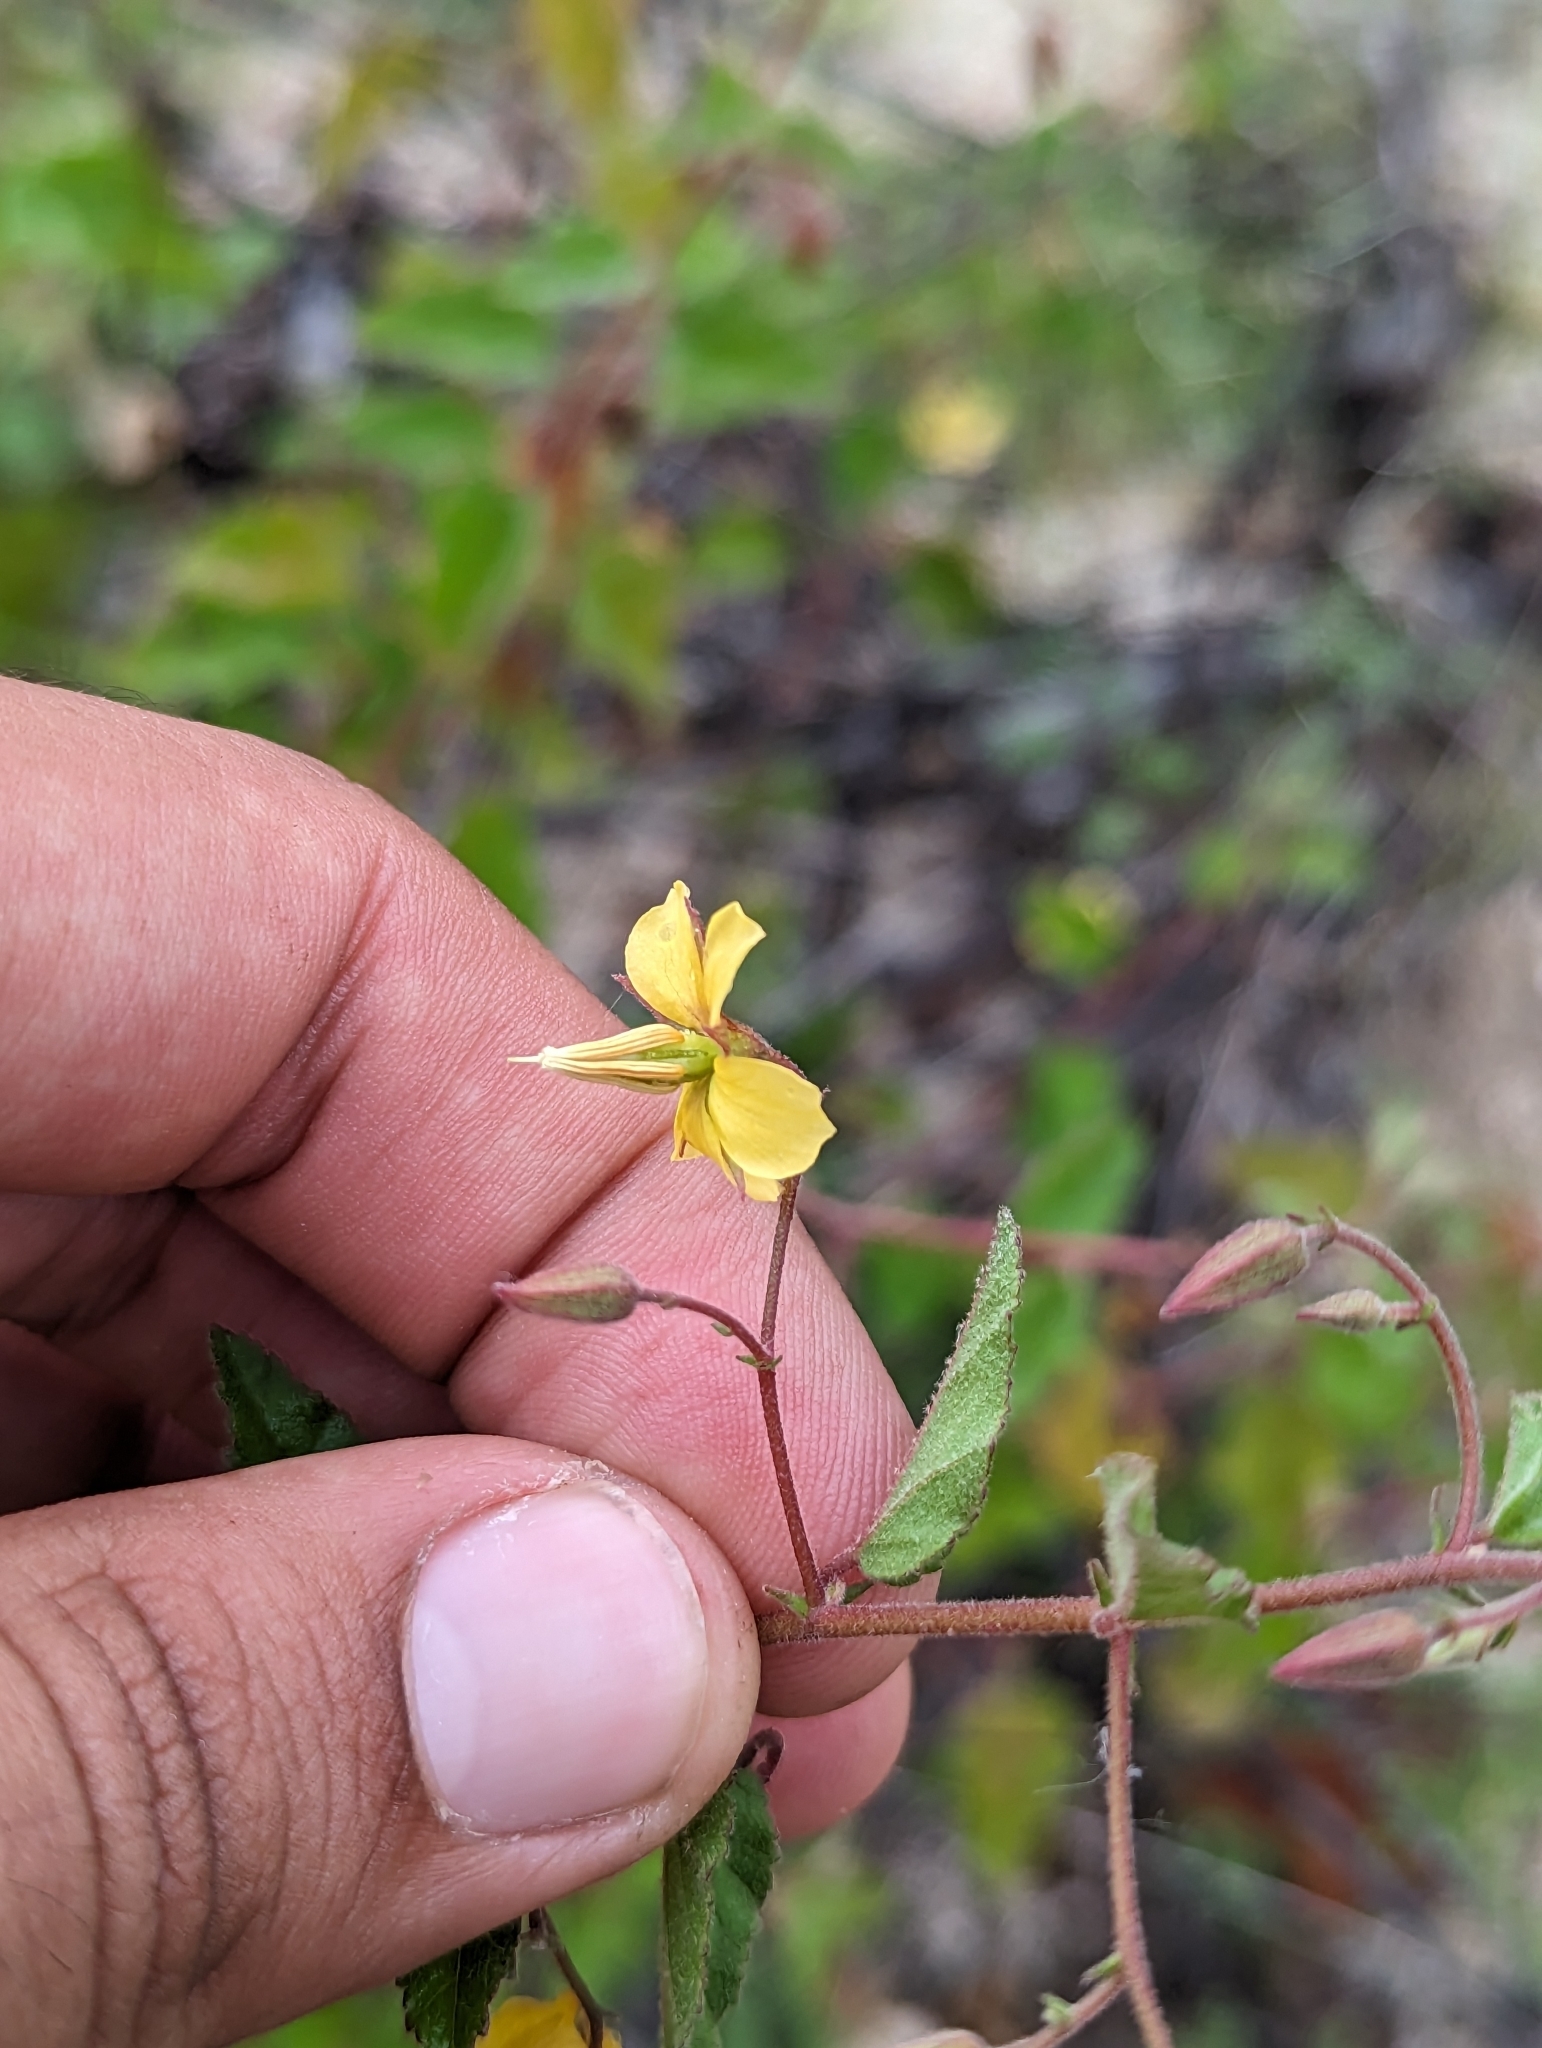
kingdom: Plantae
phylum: Tracheophyta
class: Magnoliopsida
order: Malvales
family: Malvaceae
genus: Hermannia
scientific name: Hermannia palmeri
